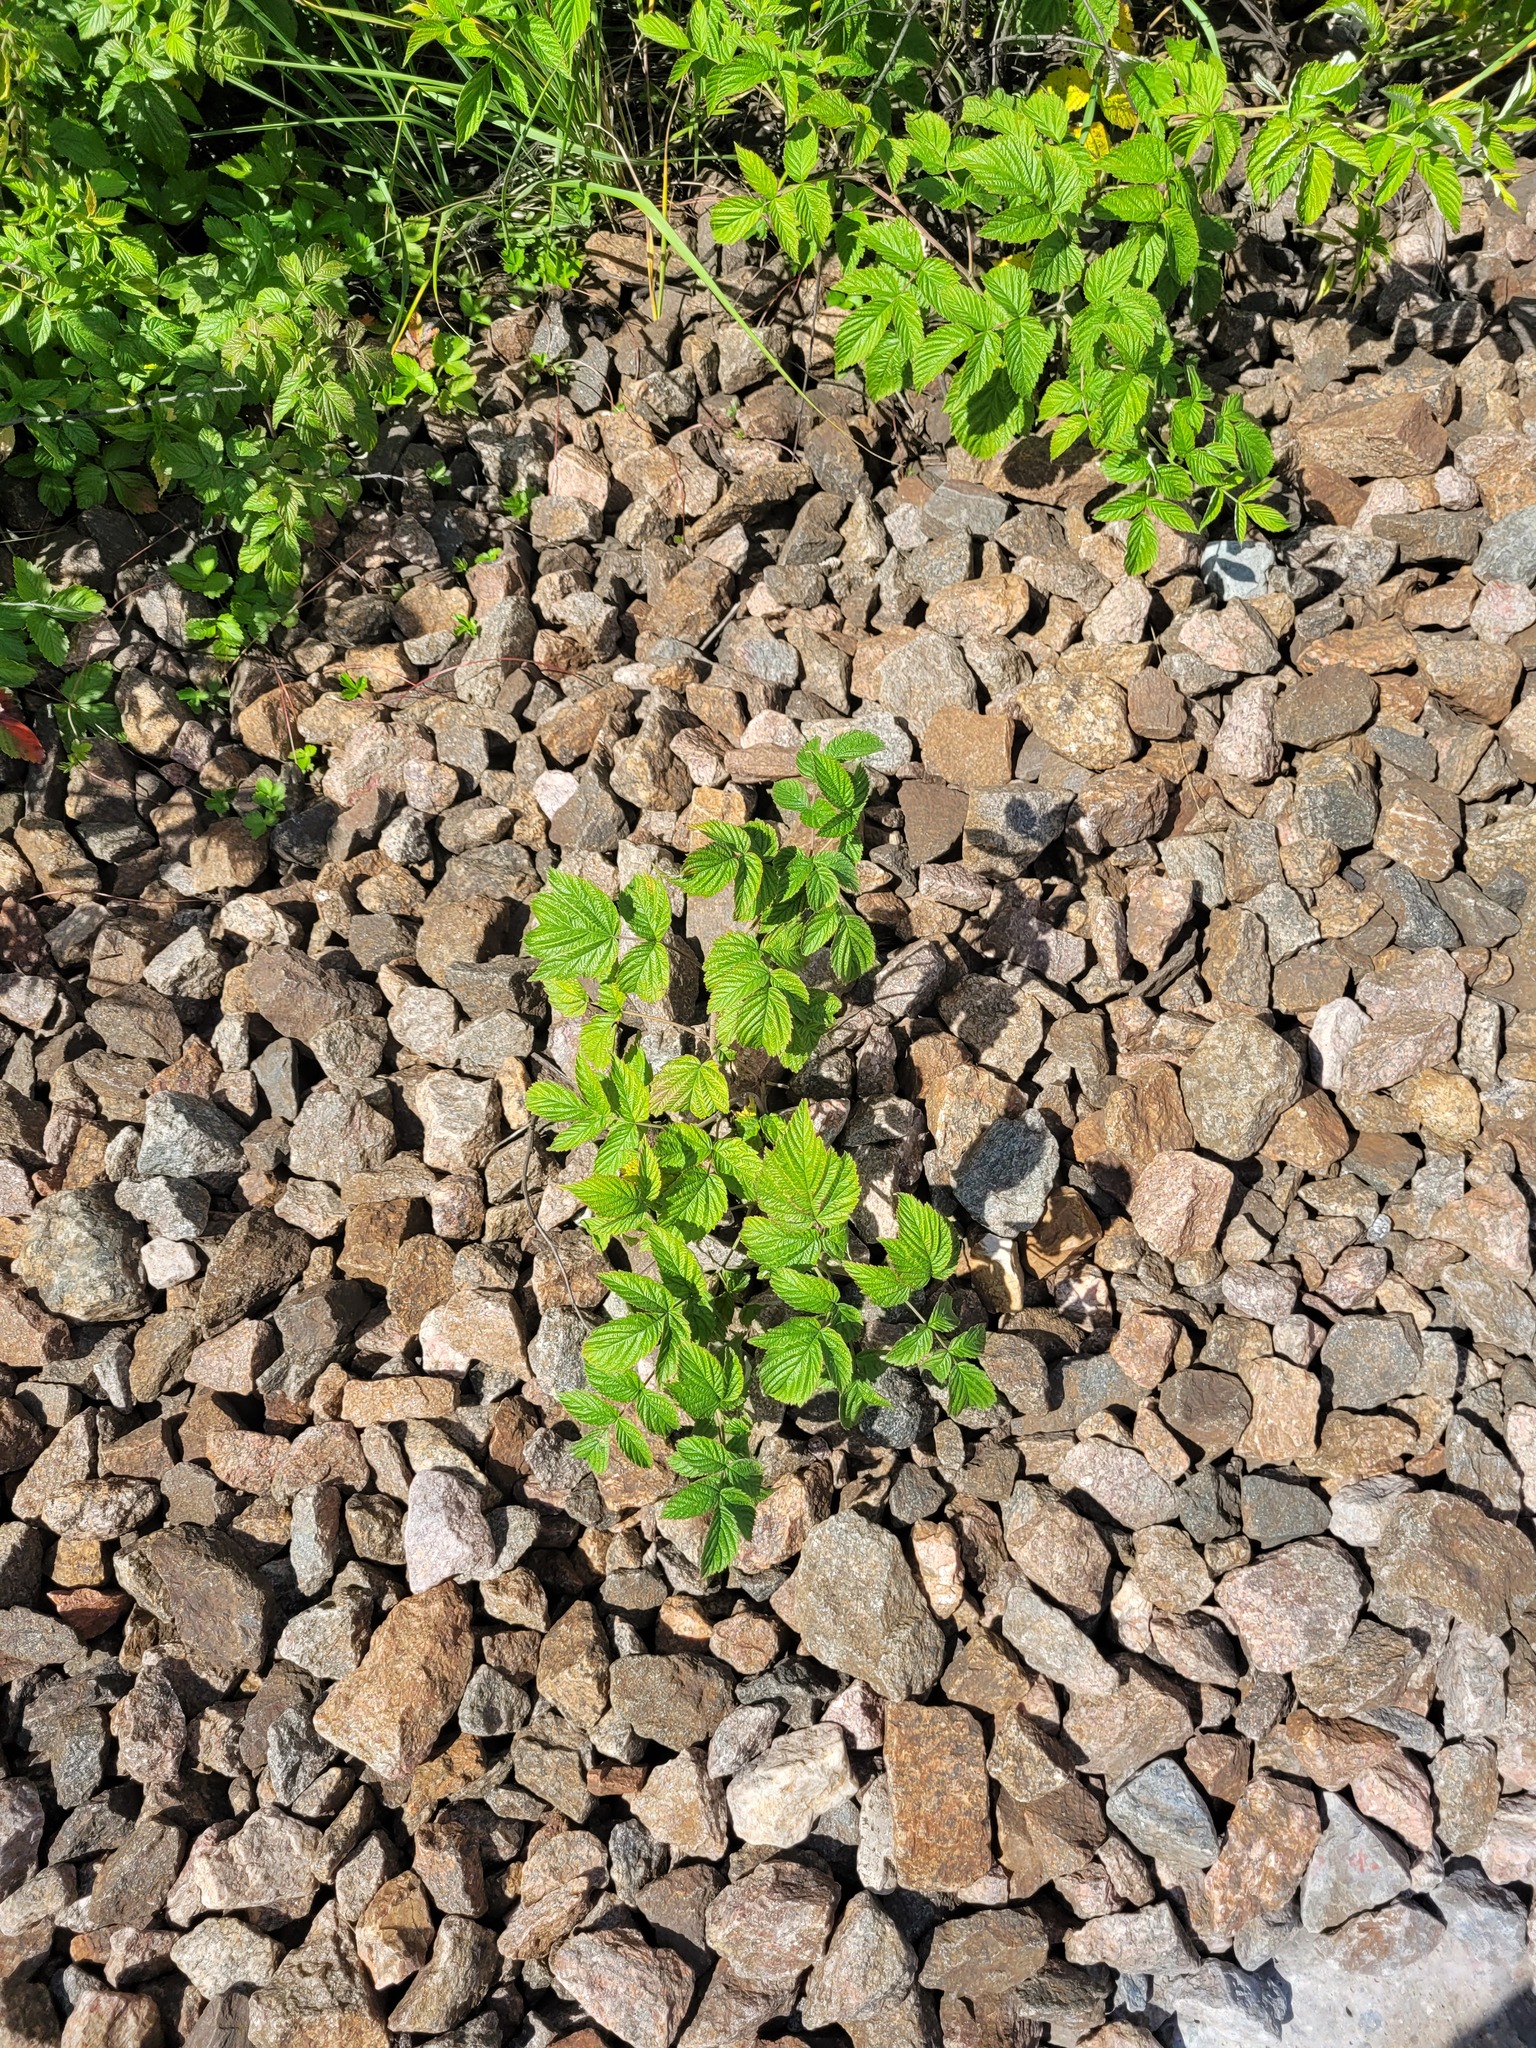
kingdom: Plantae
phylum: Tracheophyta
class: Magnoliopsida
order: Rosales
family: Rosaceae
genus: Rubus
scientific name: Rubus idaeus
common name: Raspberry
